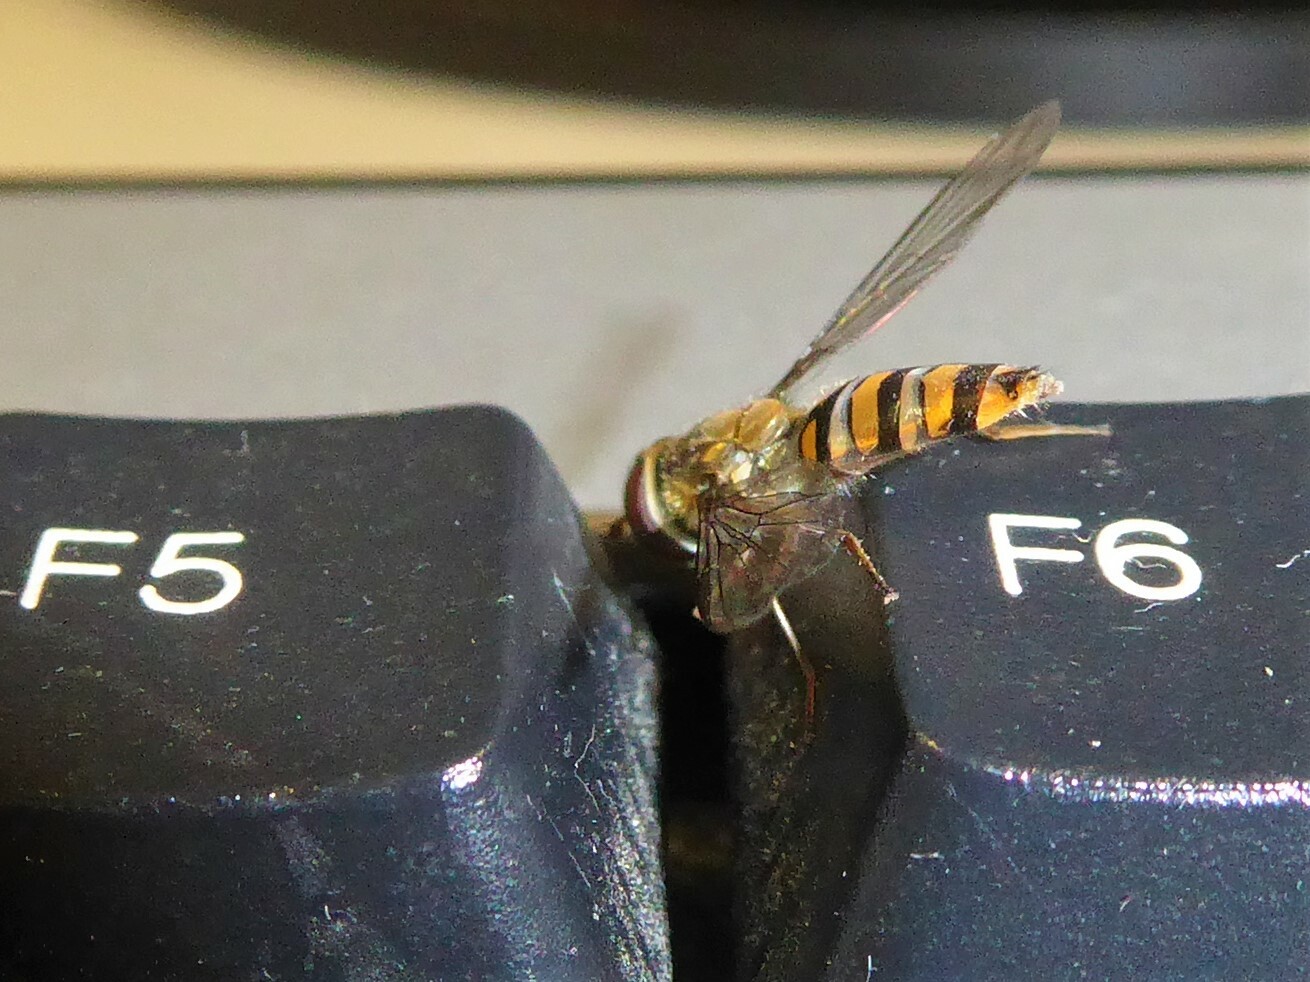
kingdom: Animalia
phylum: Arthropoda
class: Insecta
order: Diptera
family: Syrphidae
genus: Episyrphus
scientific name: Episyrphus balteatus
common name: Marmalade hoverfly
